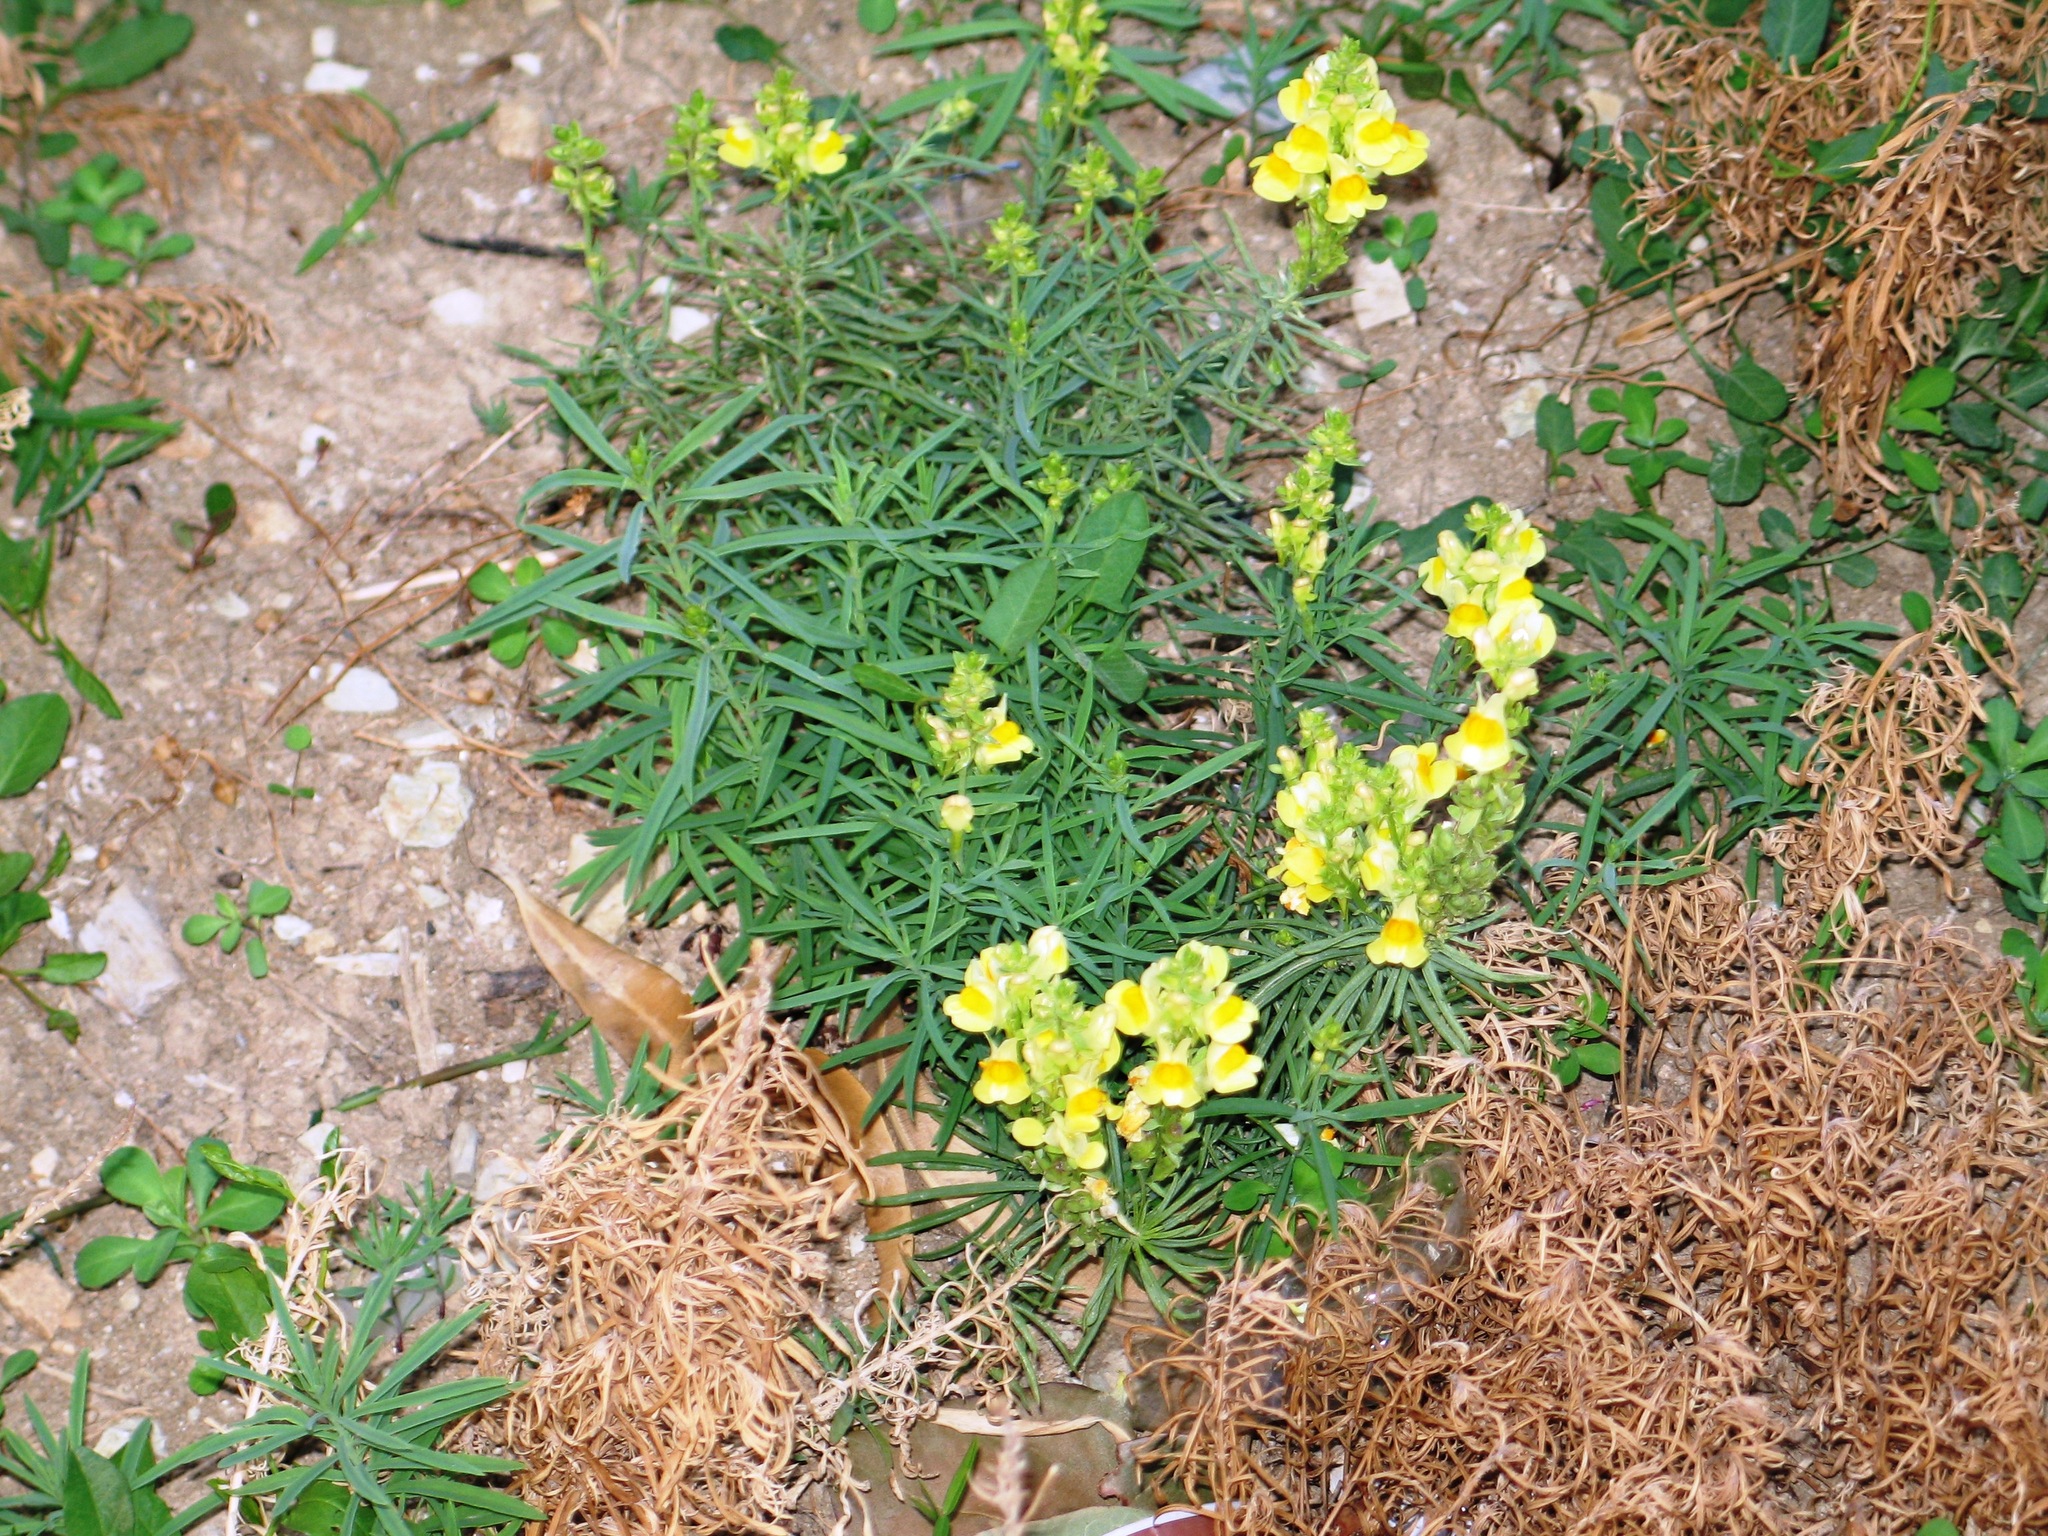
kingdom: Plantae
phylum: Tracheophyta
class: Magnoliopsida
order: Lamiales
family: Plantaginaceae
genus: Linaria
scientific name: Linaria vulgaris
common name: Butter and eggs
